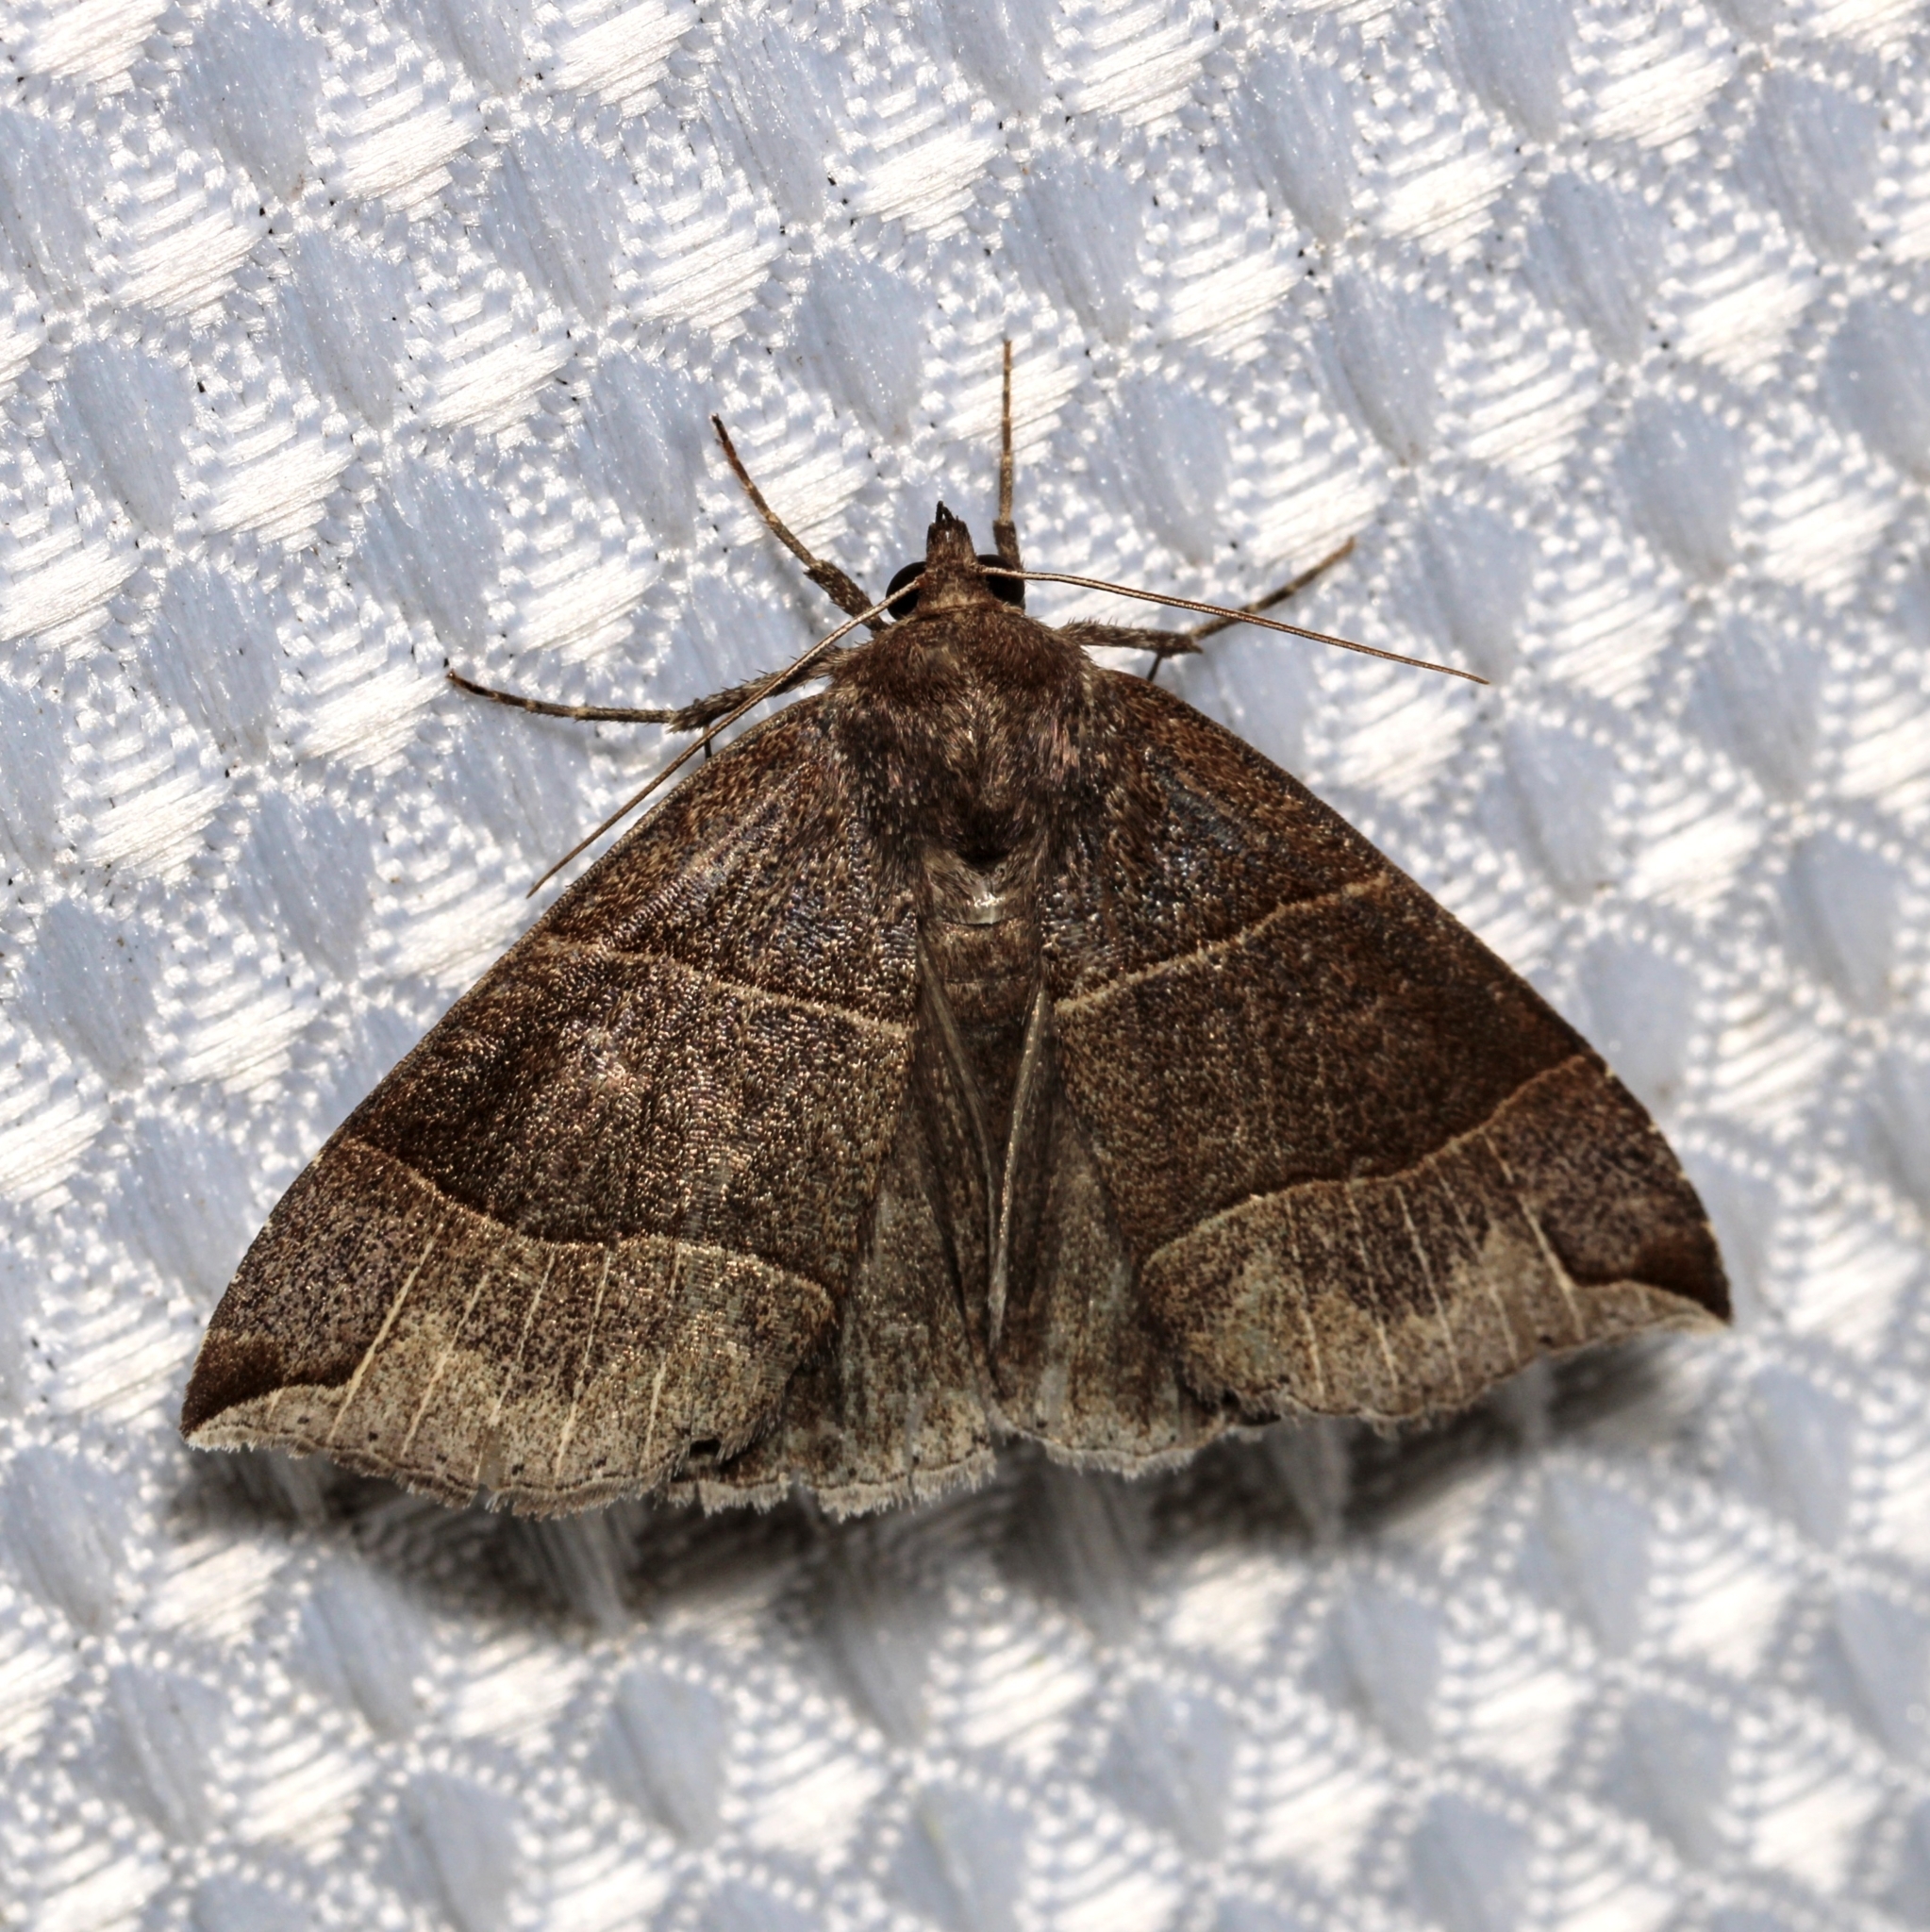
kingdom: Animalia
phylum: Arthropoda
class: Insecta
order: Lepidoptera
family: Erebidae
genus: Parallelia
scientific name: Parallelia bistriaris
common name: Maple looper moth
